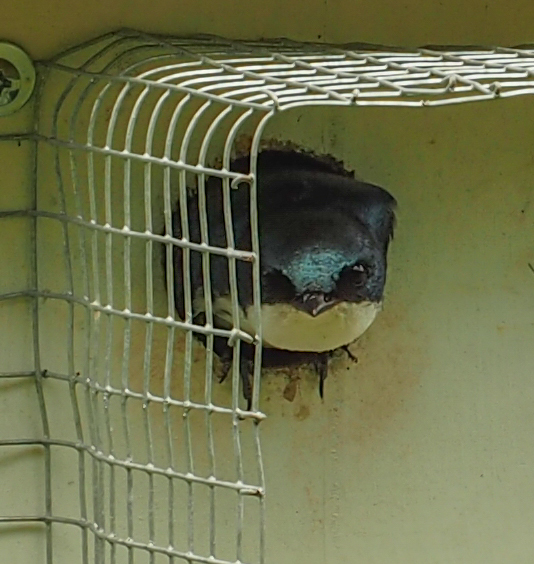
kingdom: Animalia
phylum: Chordata
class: Aves
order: Passeriformes
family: Hirundinidae
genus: Tachycineta
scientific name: Tachycineta bicolor
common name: Tree swallow
